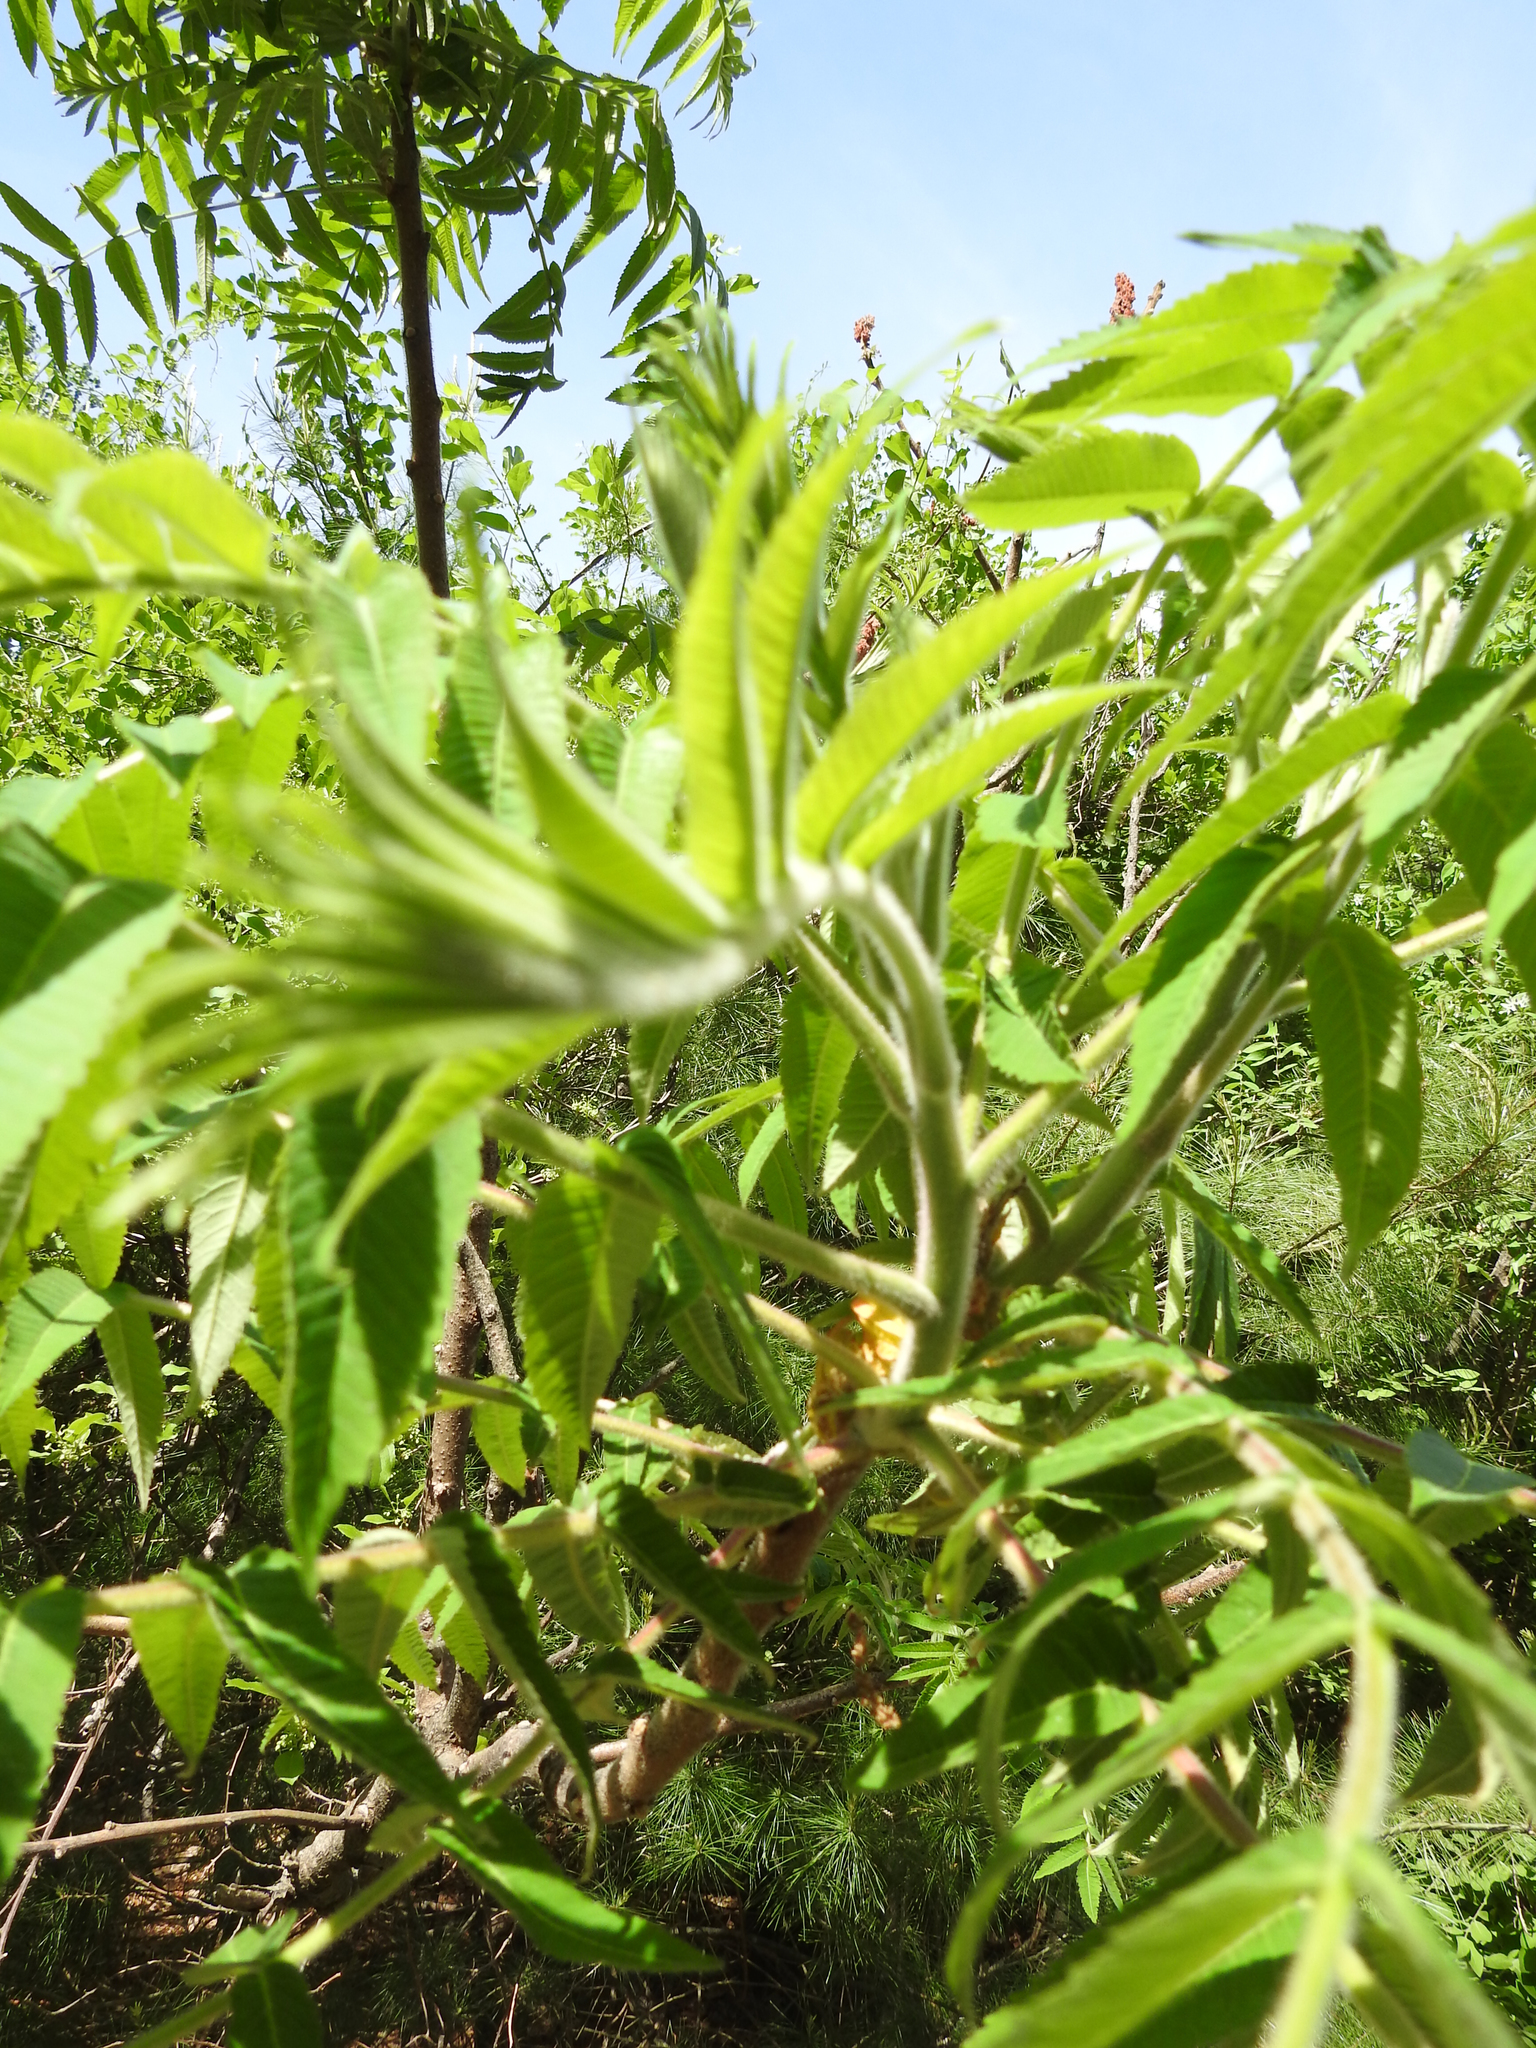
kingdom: Plantae
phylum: Tracheophyta
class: Magnoliopsida
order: Sapindales
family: Anacardiaceae
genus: Rhus
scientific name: Rhus typhina
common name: Staghorn sumac
